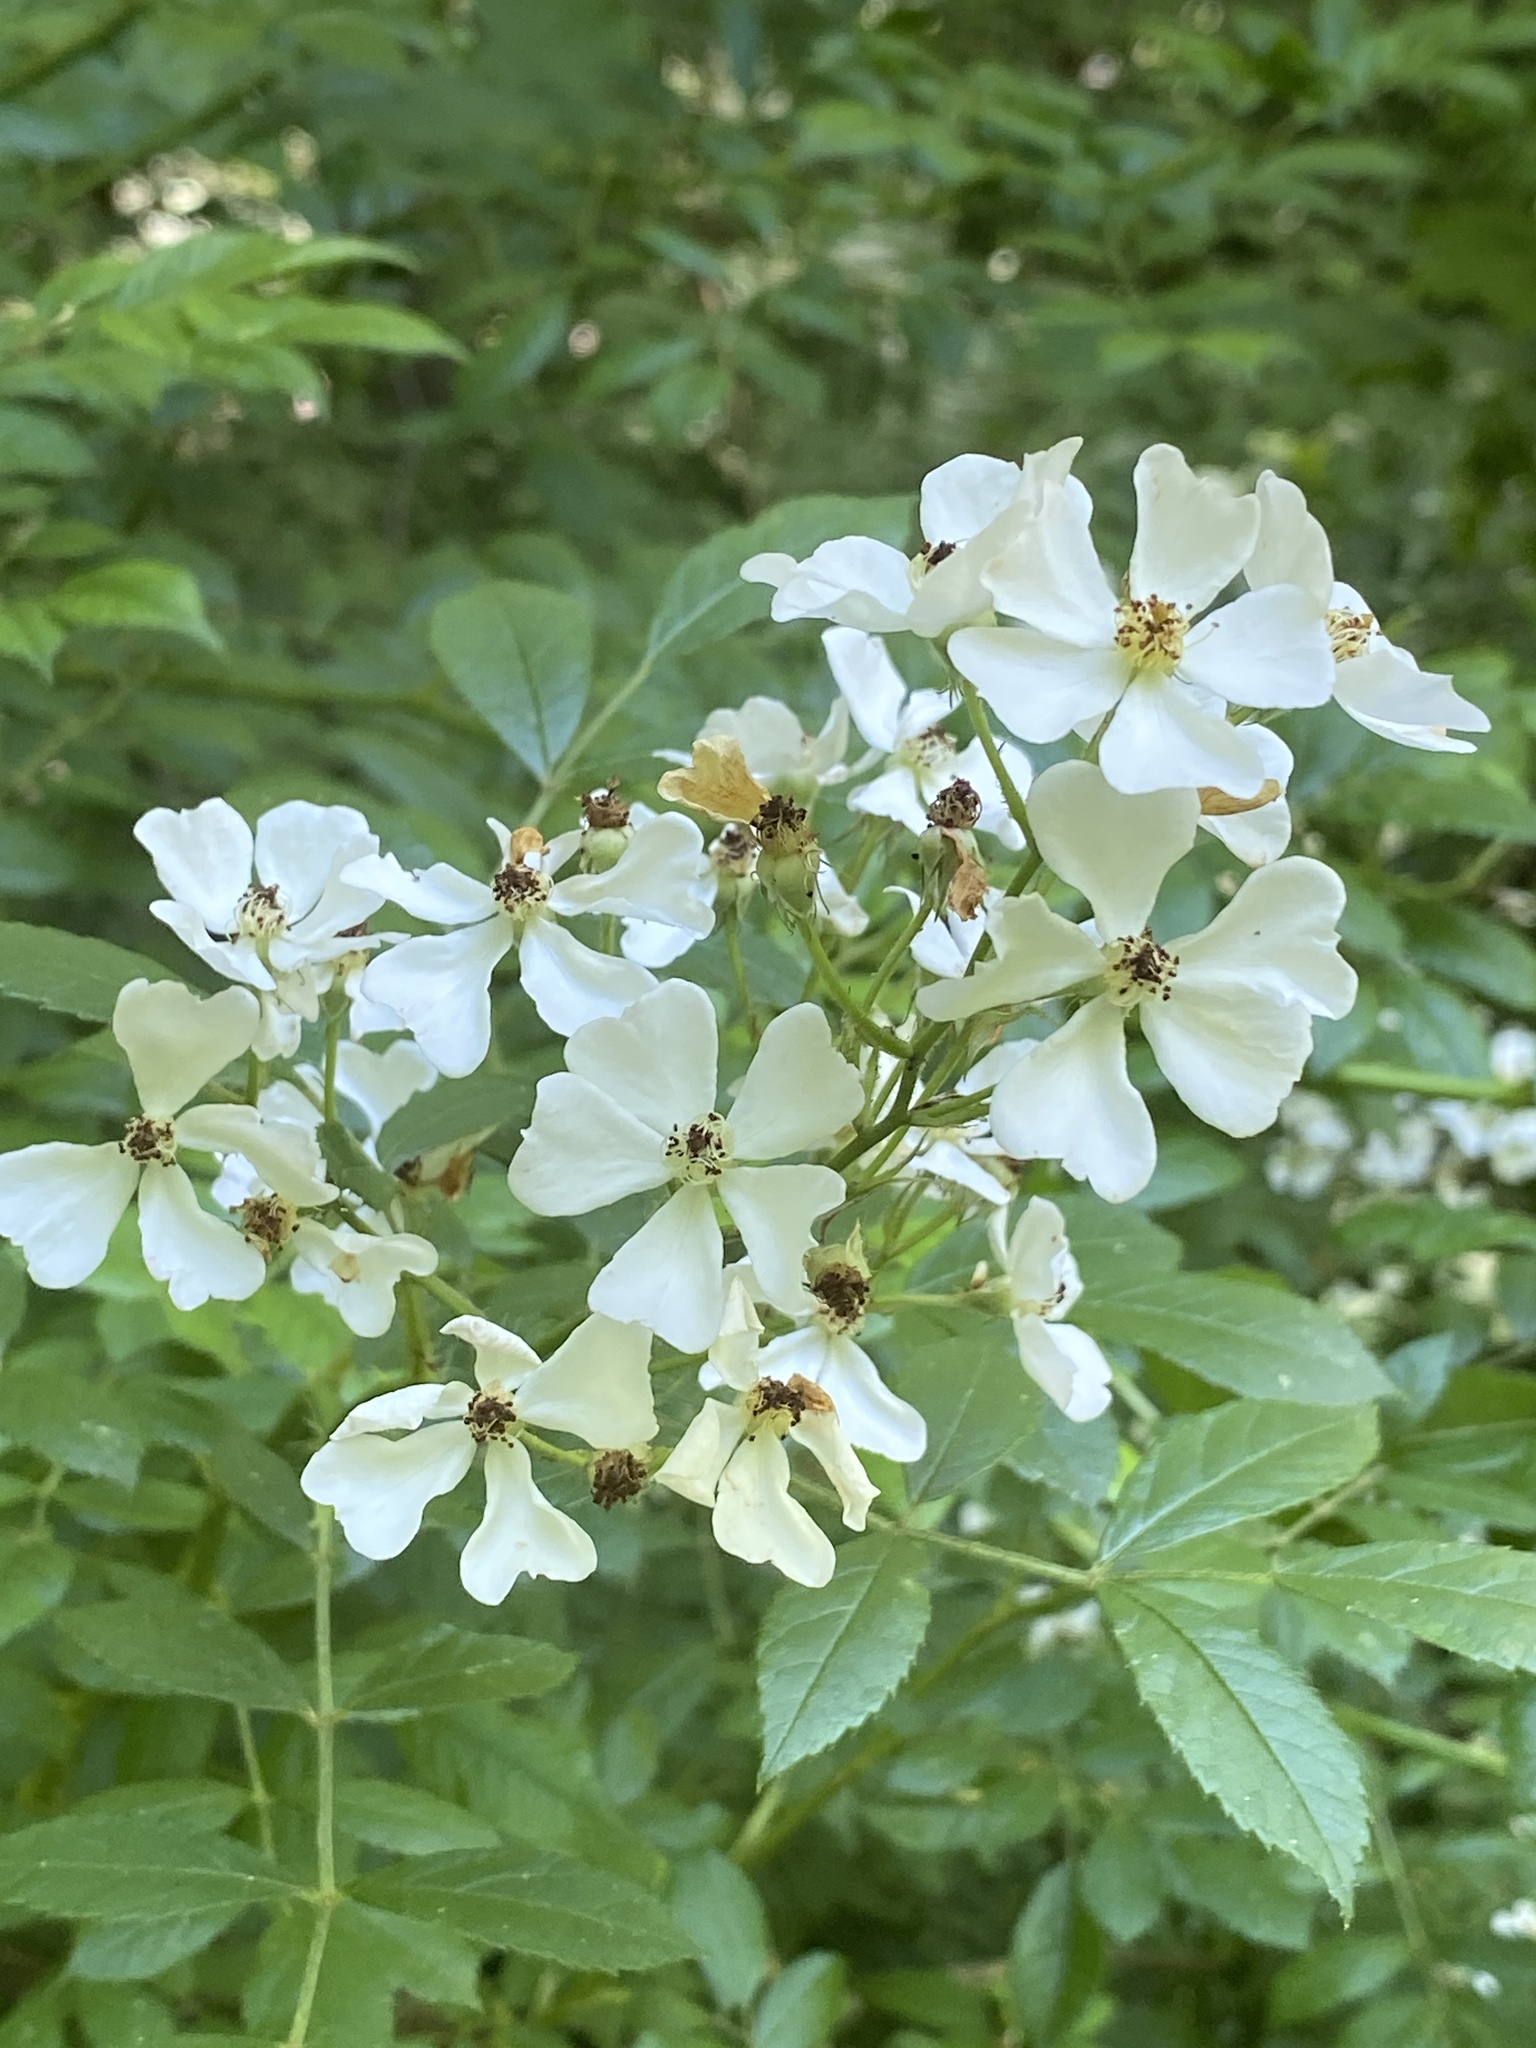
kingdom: Plantae
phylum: Tracheophyta
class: Magnoliopsida
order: Rosales
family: Rosaceae
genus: Rosa
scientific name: Rosa multiflora
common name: Multiflora rose
